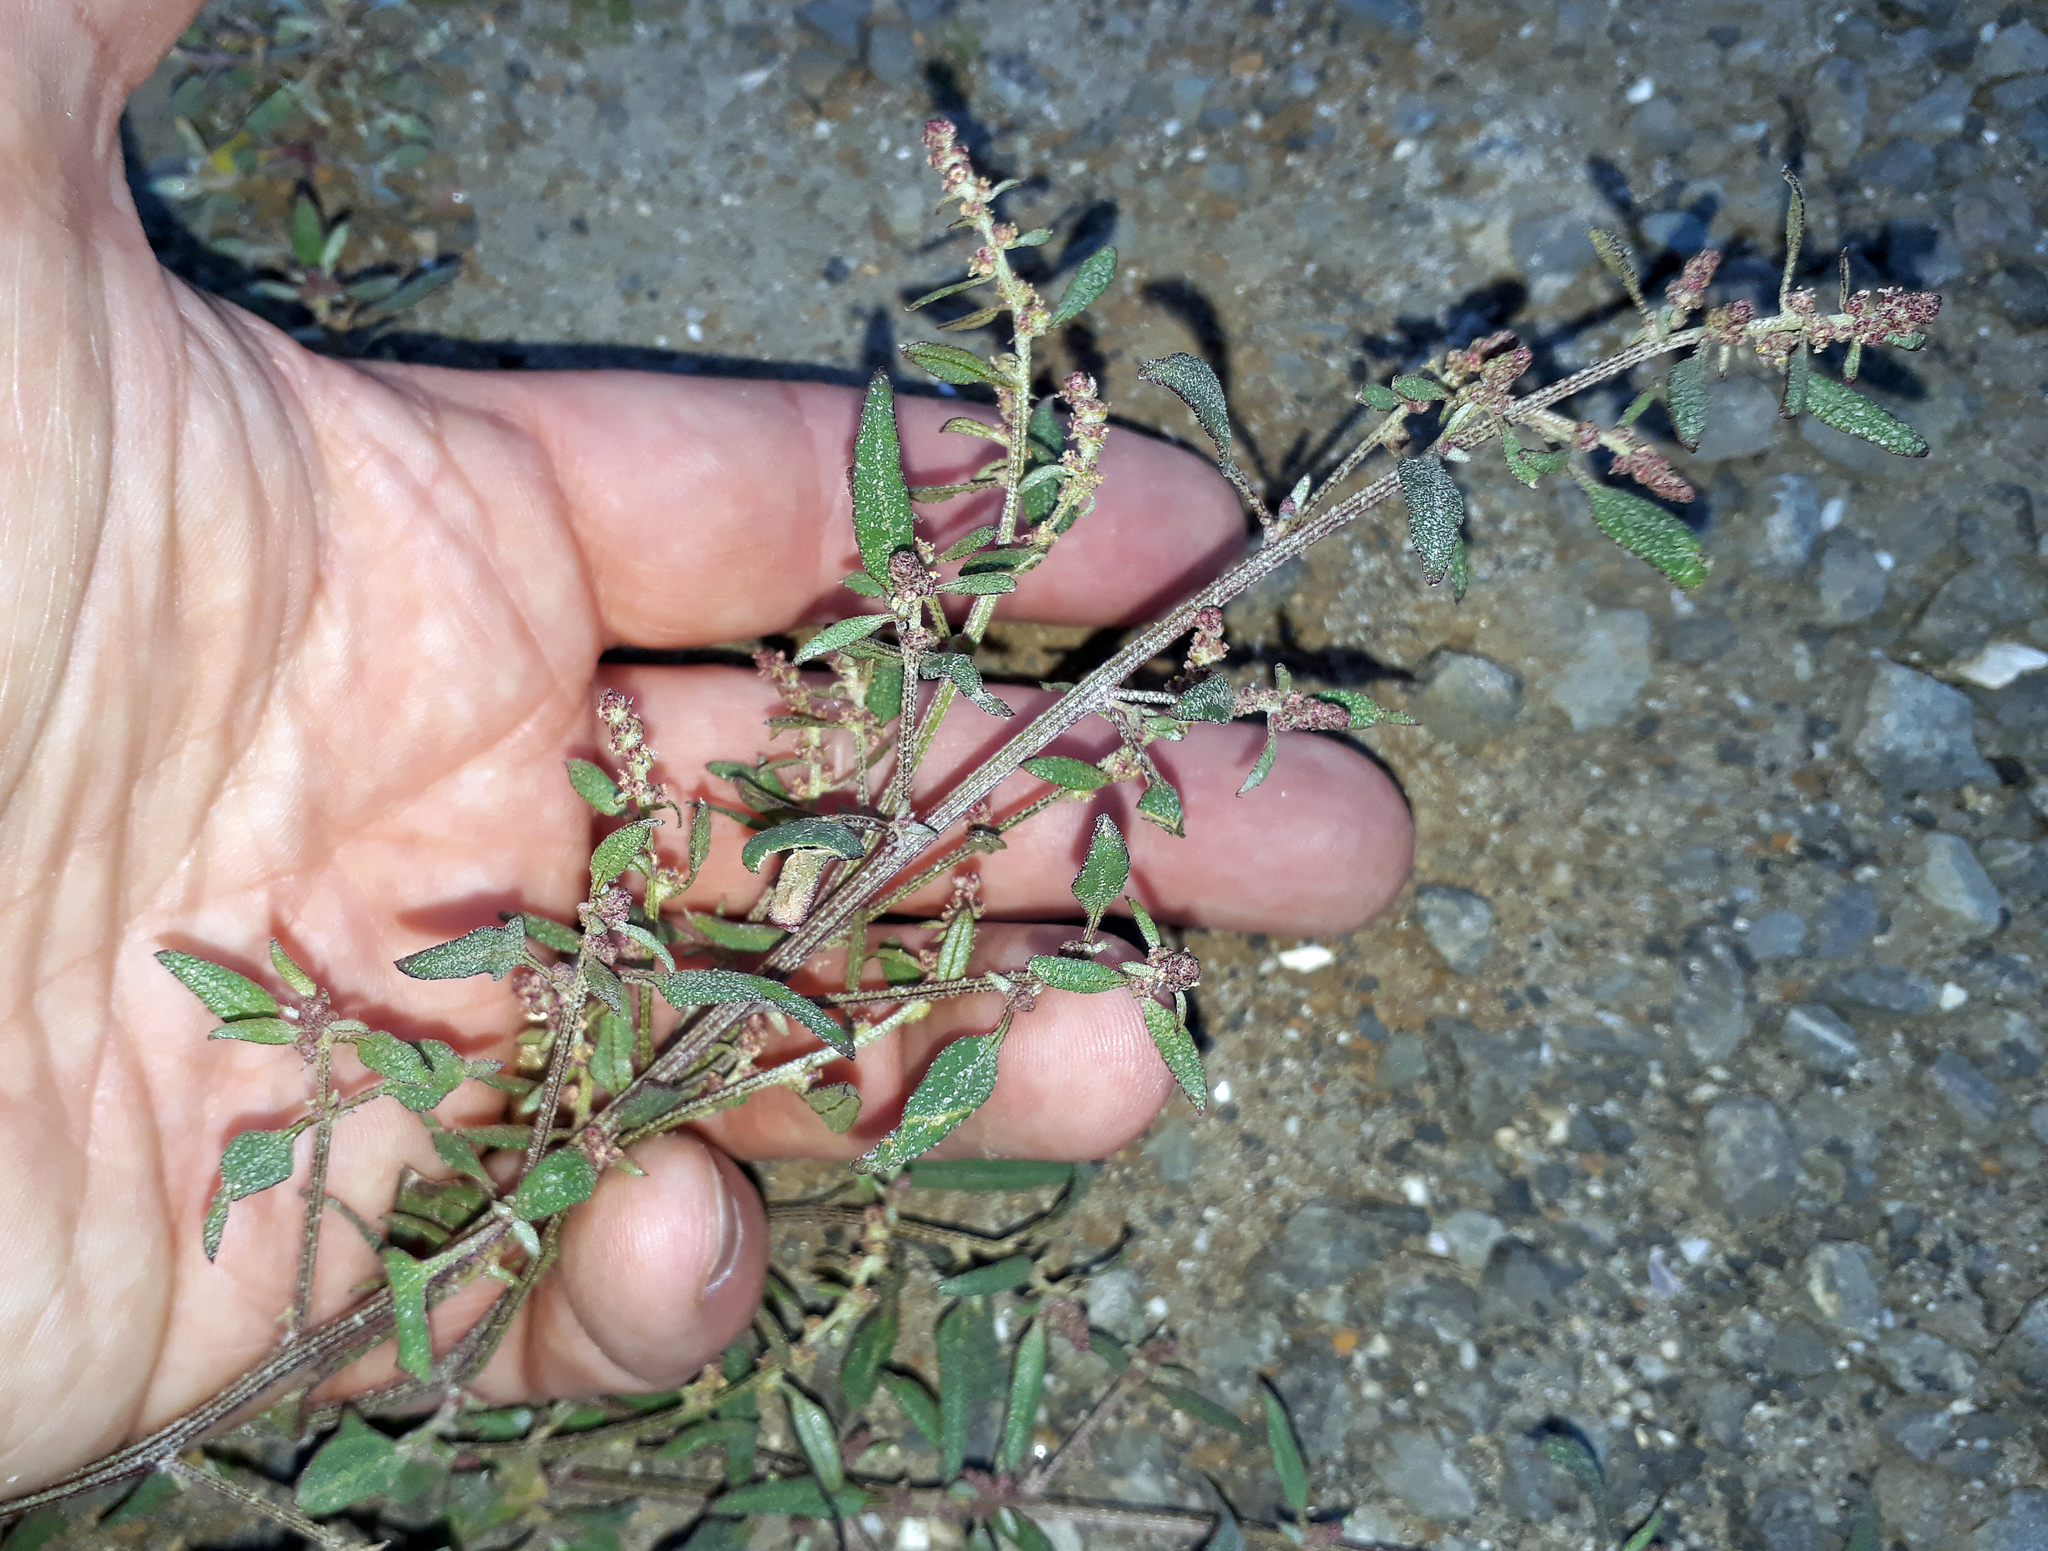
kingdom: Plantae
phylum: Tracheophyta
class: Magnoliopsida
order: Caryophyllales
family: Amaranthaceae
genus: Atriplex
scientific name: Atriplex prostrata
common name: Spear-leaved orache
